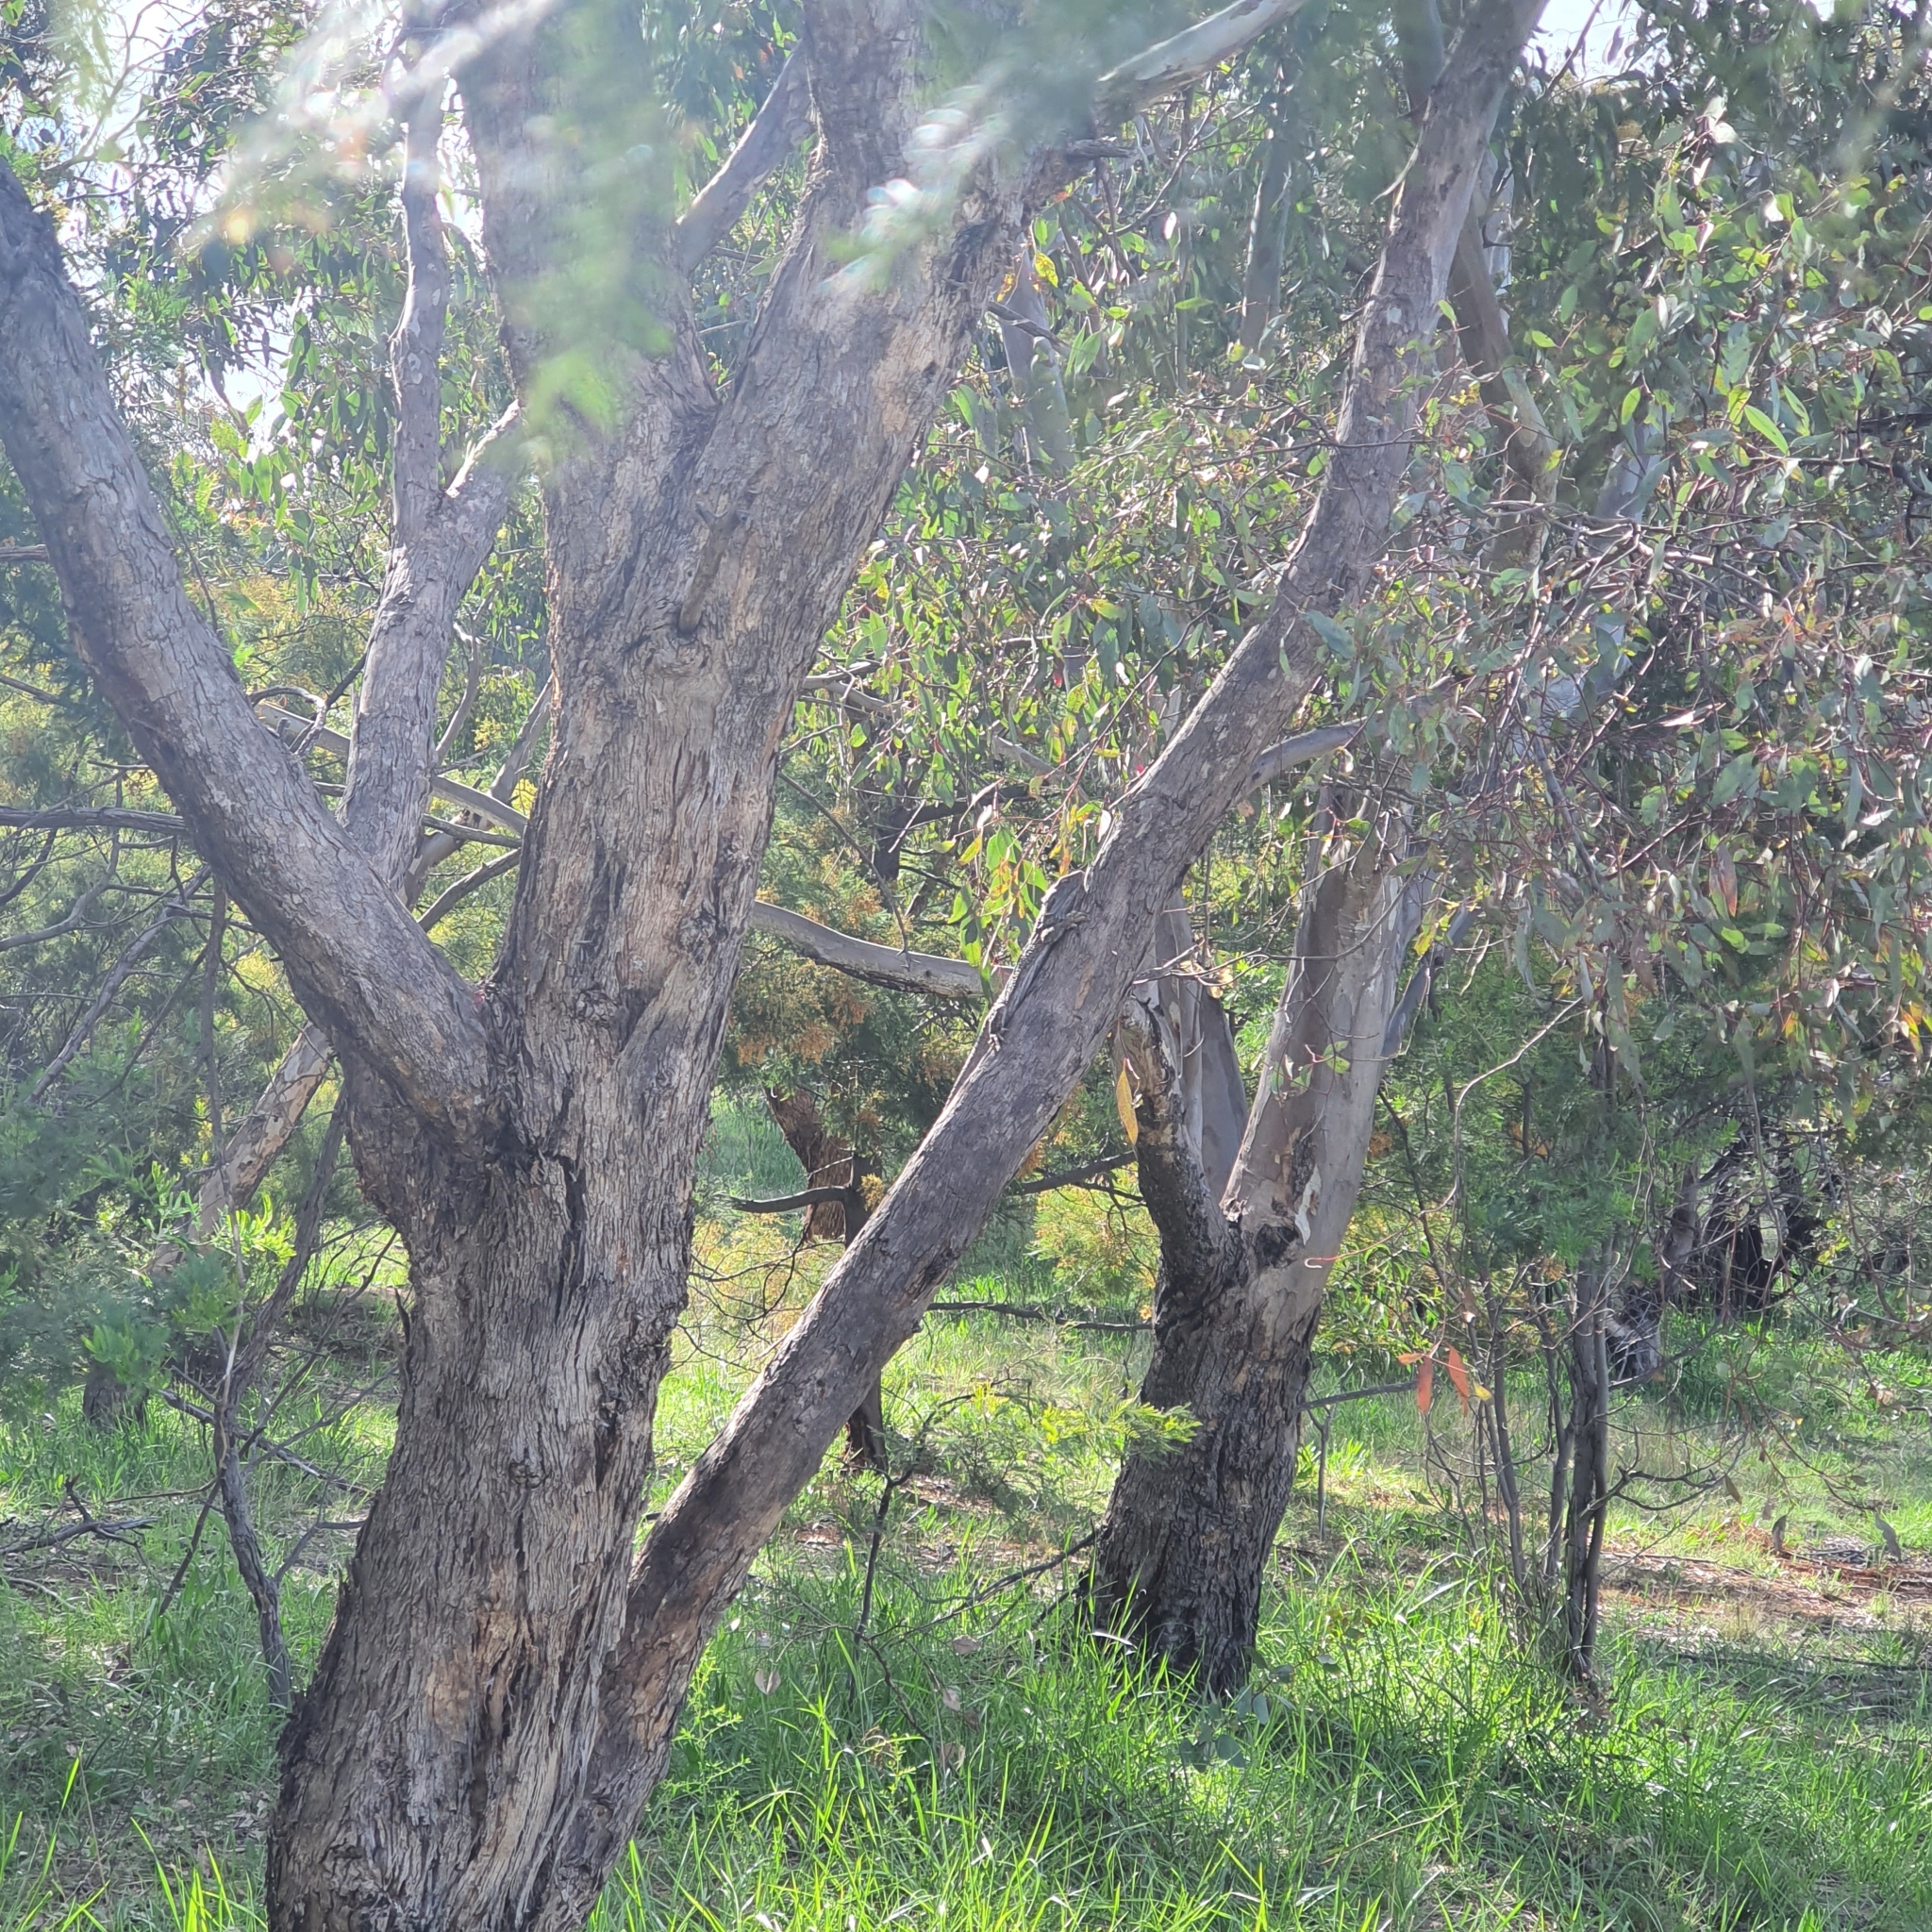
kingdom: Animalia
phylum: Chordata
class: Squamata
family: Agamidae
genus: Pogona
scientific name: Pogona barbata
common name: Bearded dragon
